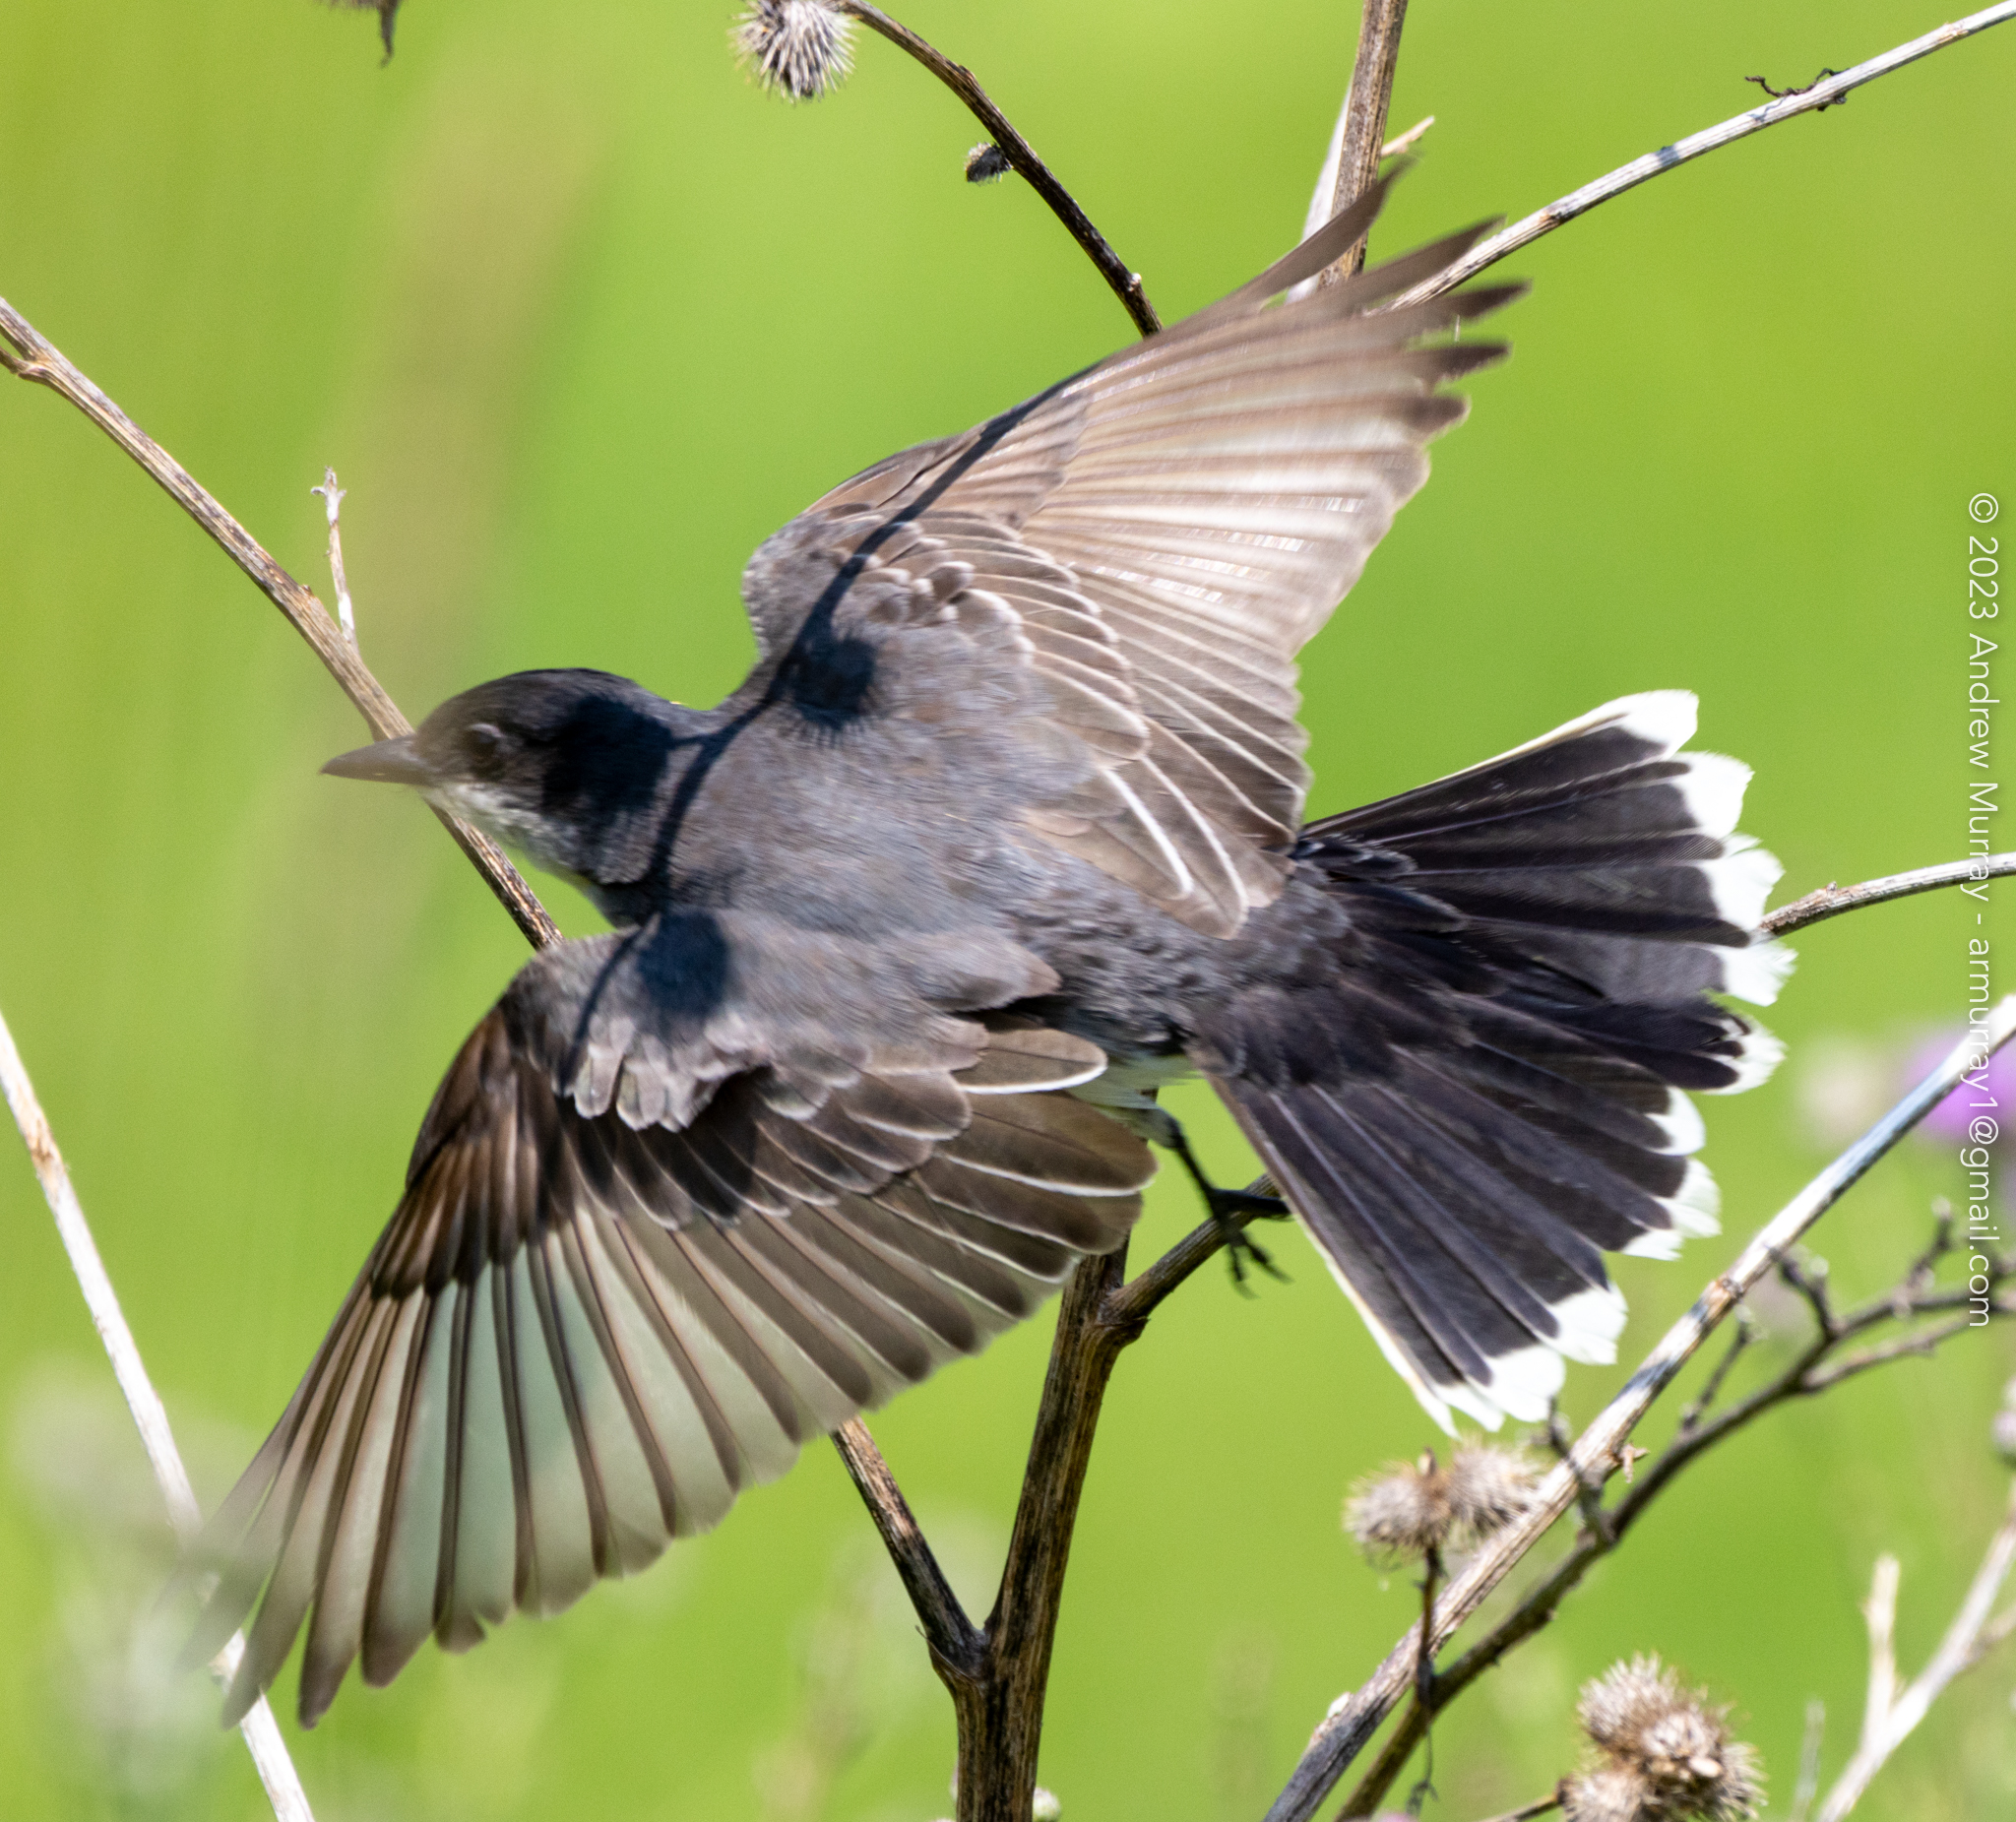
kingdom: Animalia
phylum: Chordata
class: Aves
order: Passeriformes
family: Tyrannidae
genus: Tyrannus
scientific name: Tyrannus tyrannus
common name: Eastern kingbird
